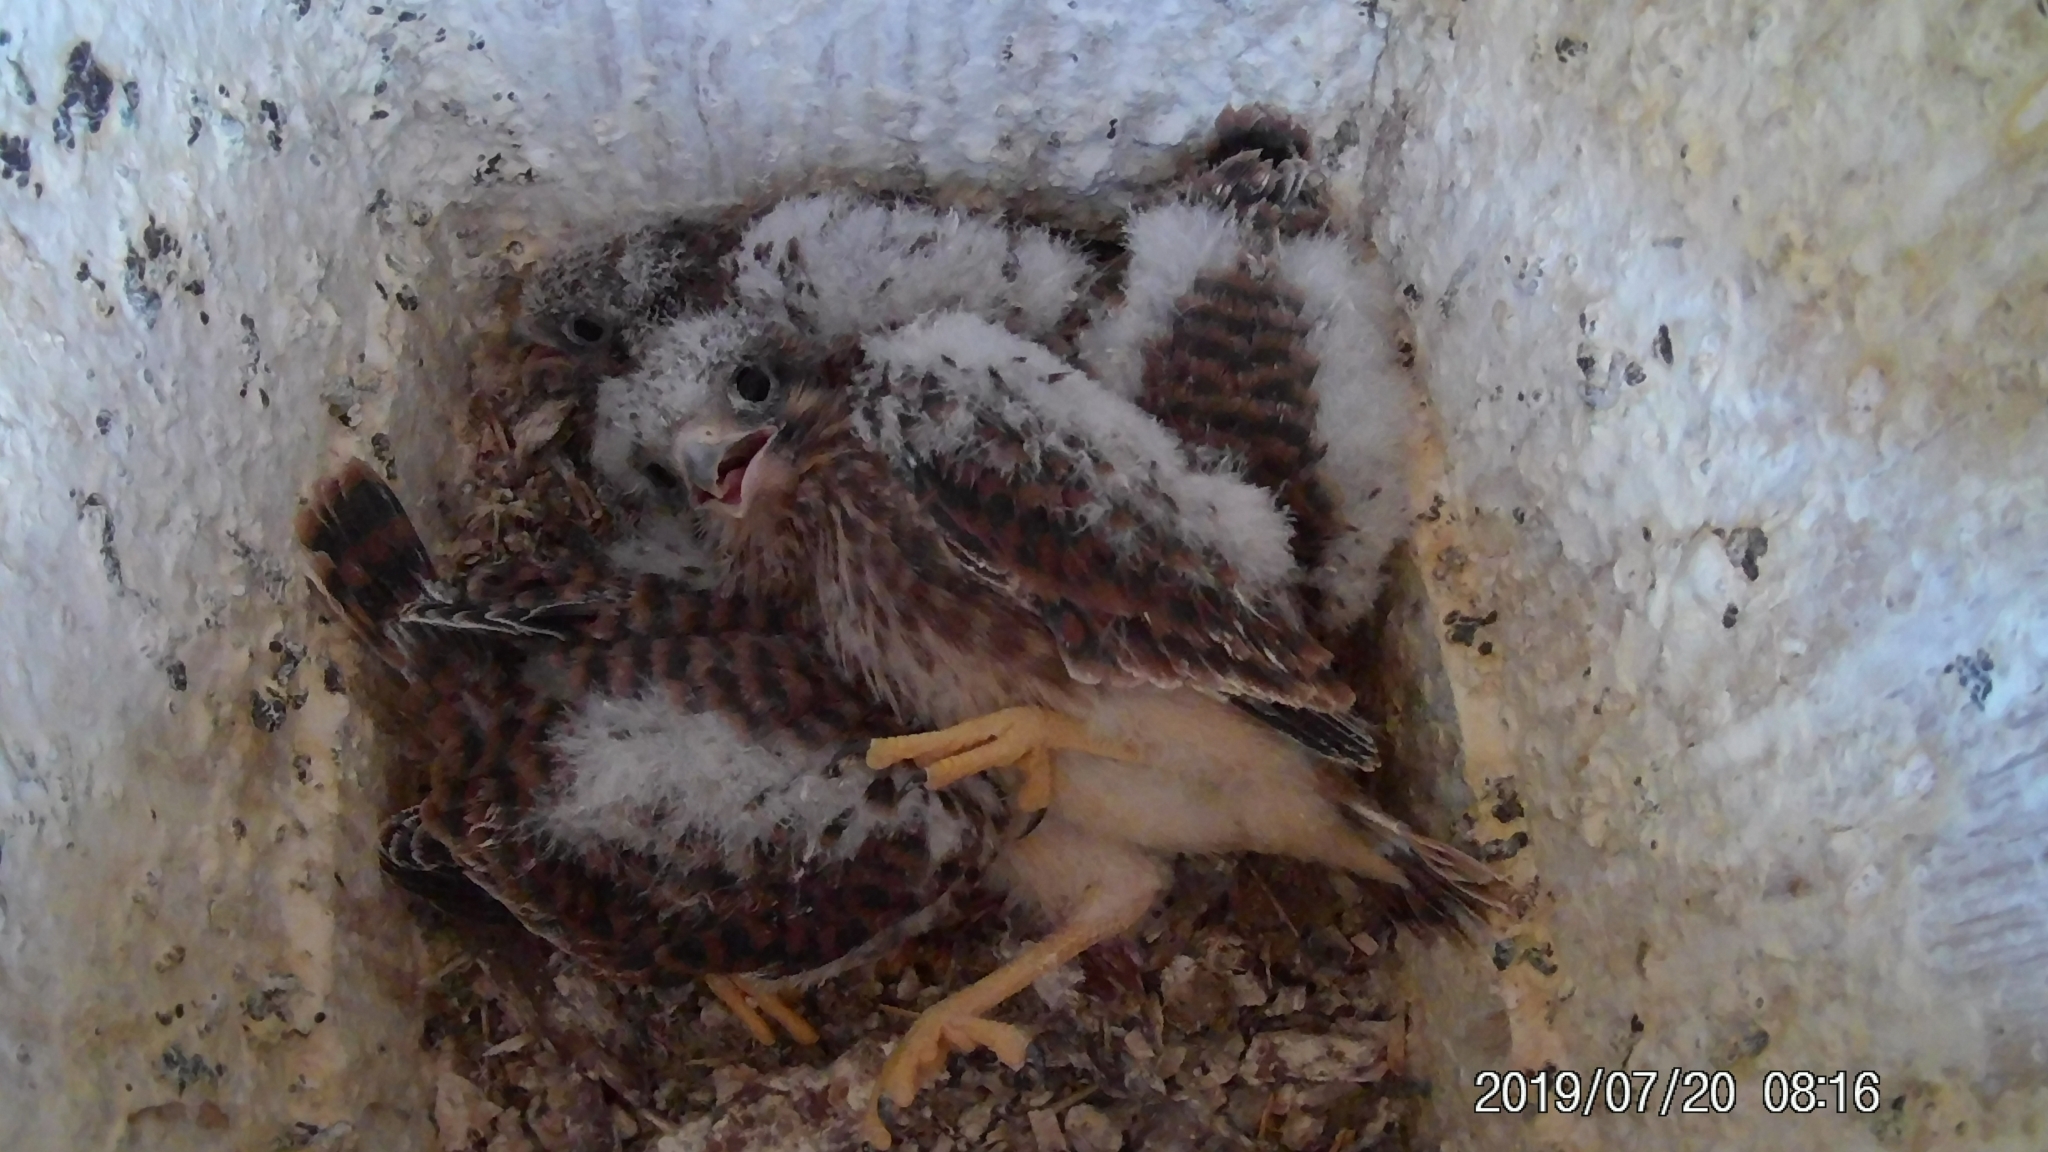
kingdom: Animalia
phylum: Chordata
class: Aves
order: Falconiformes
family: Falconidae
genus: Falco
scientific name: Falco sparverius
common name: American kestrel
